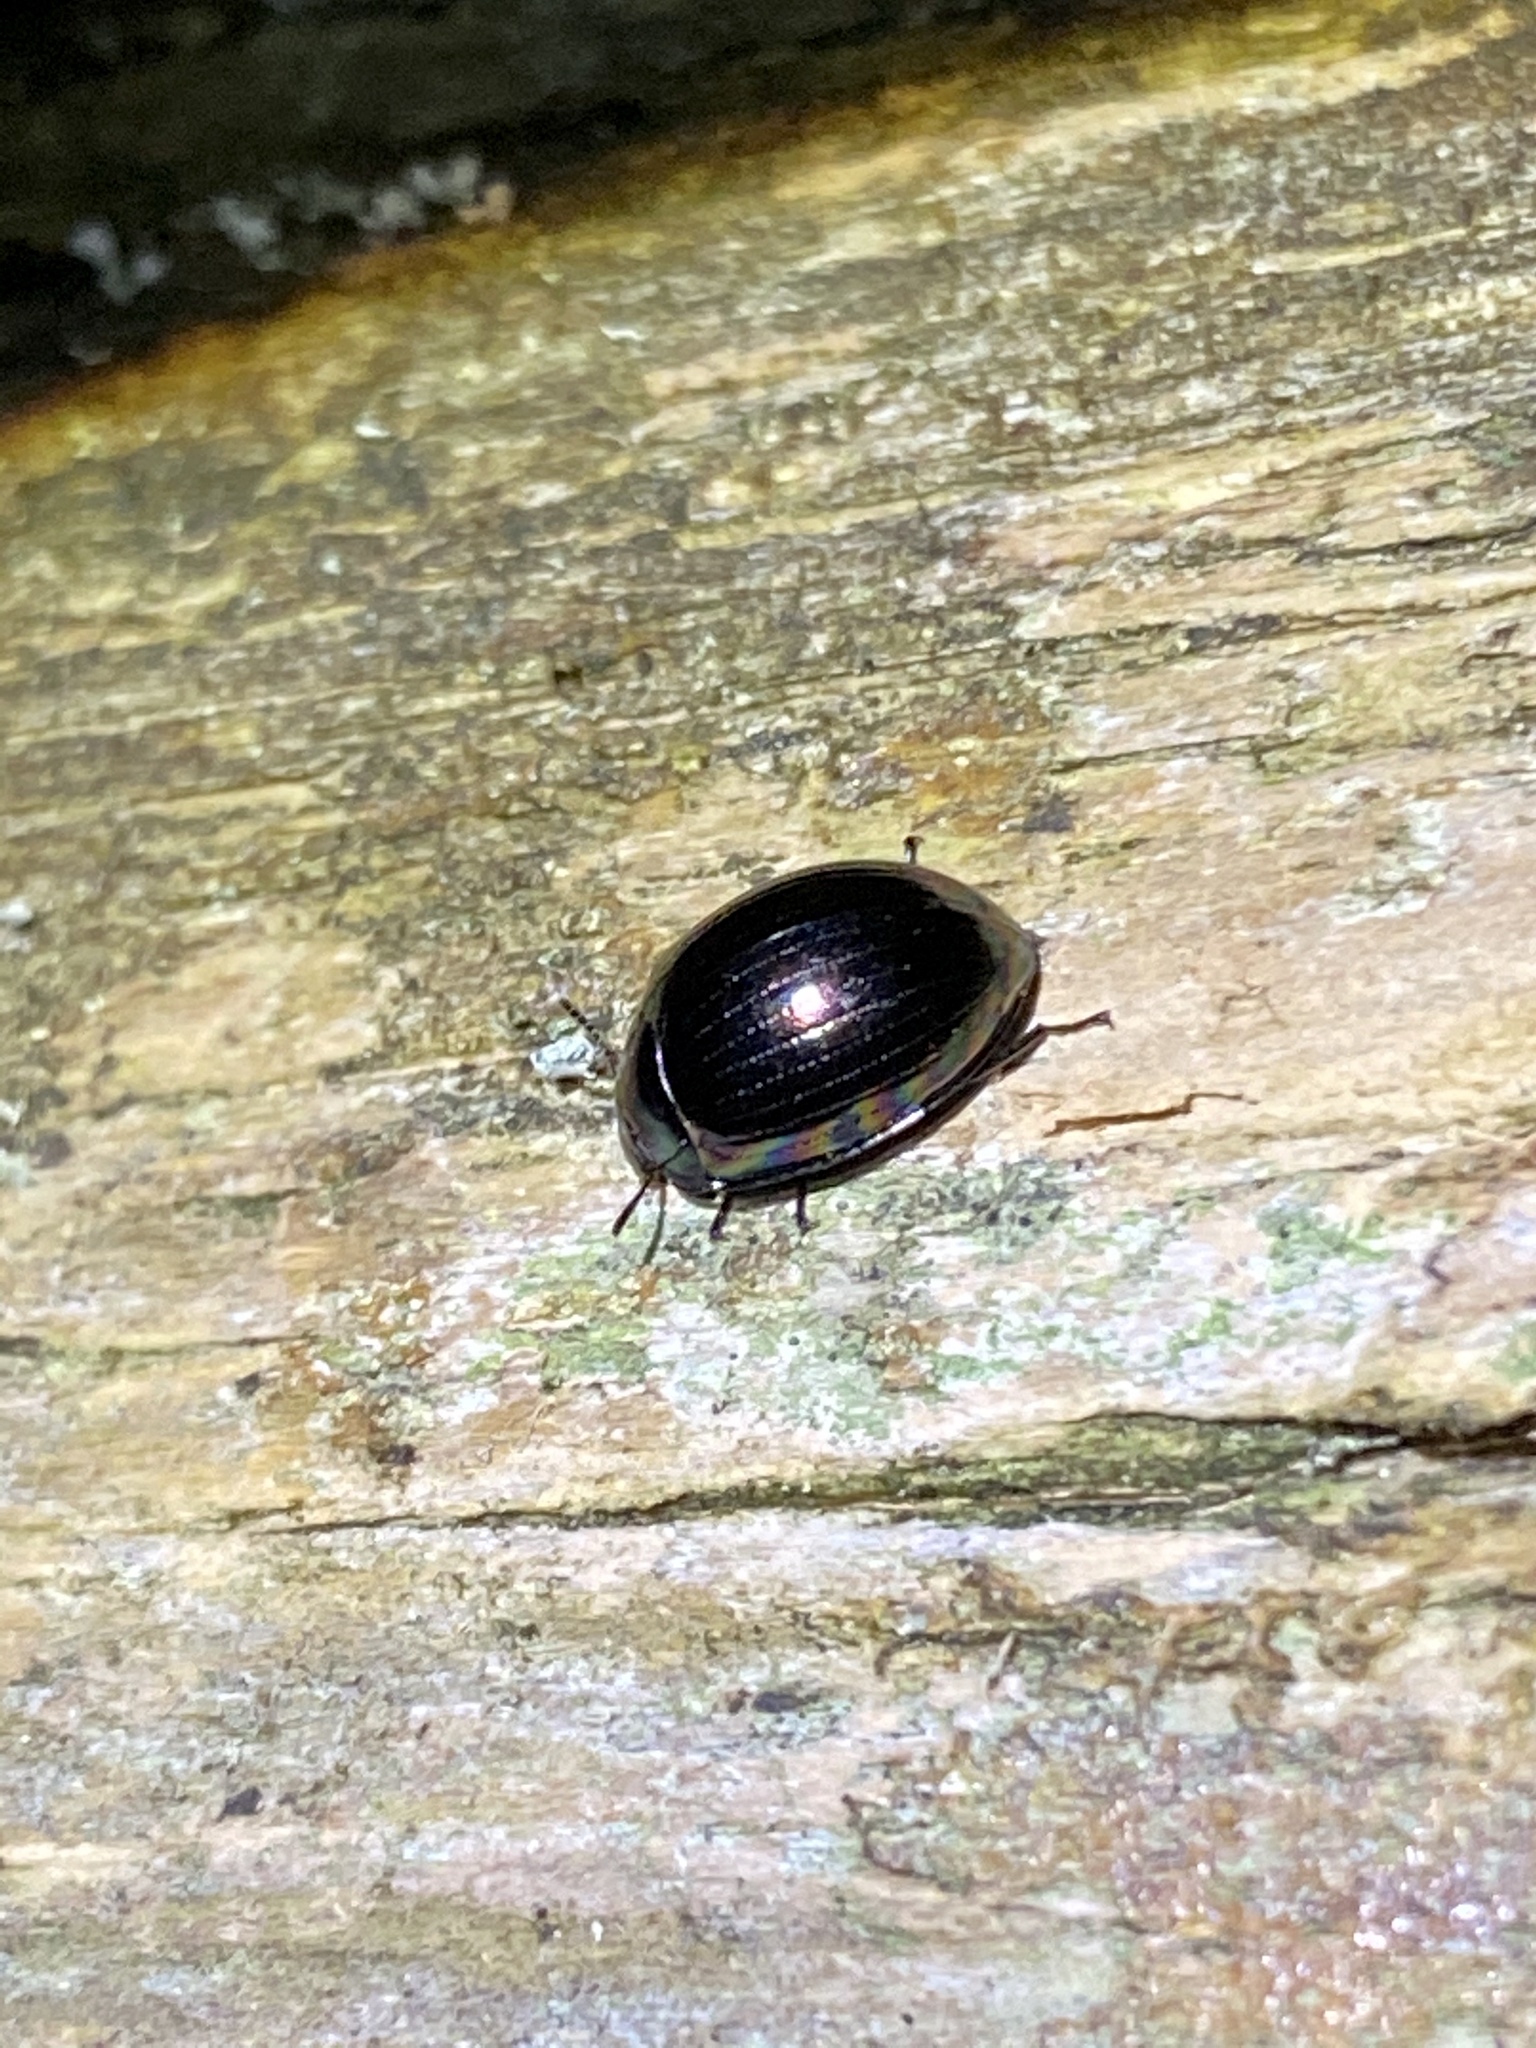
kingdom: Animalia
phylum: Arthropoda
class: Insecta
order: Coleoptera
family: Tenebrionidae
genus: Tetraphyllus
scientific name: Tetraphyllus
